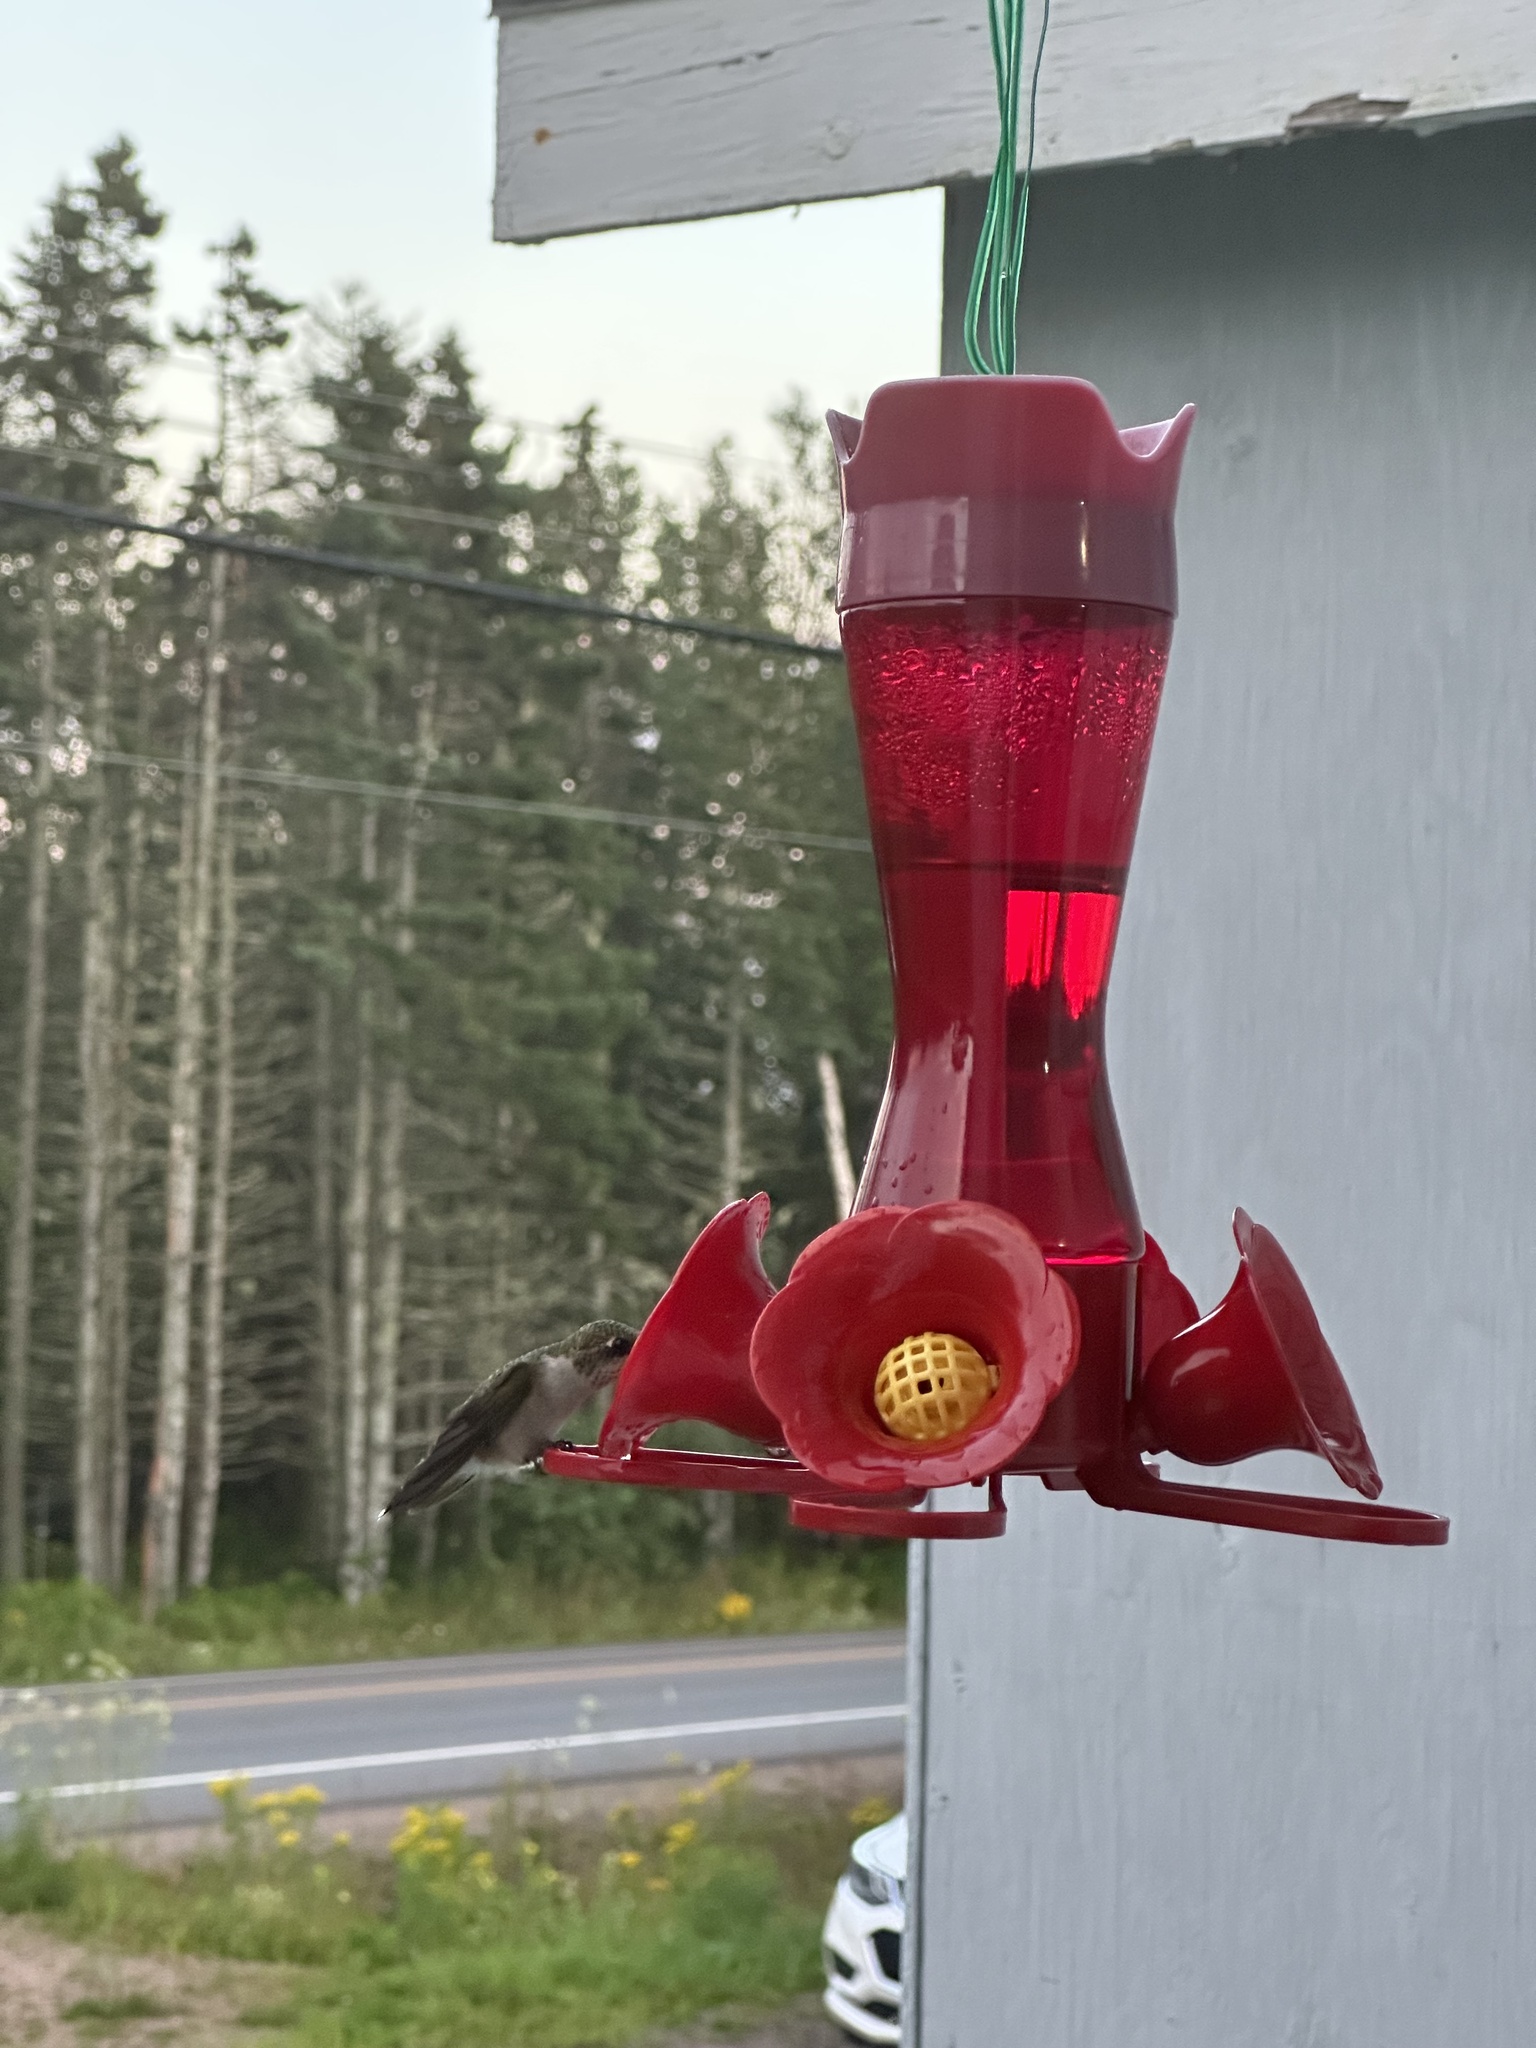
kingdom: Animalia
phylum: Chordata
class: Aves
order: Apodiformes
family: Trochilidae
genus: Archilochus
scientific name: Archilochus colubris
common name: Ruby-throated hummingbird
